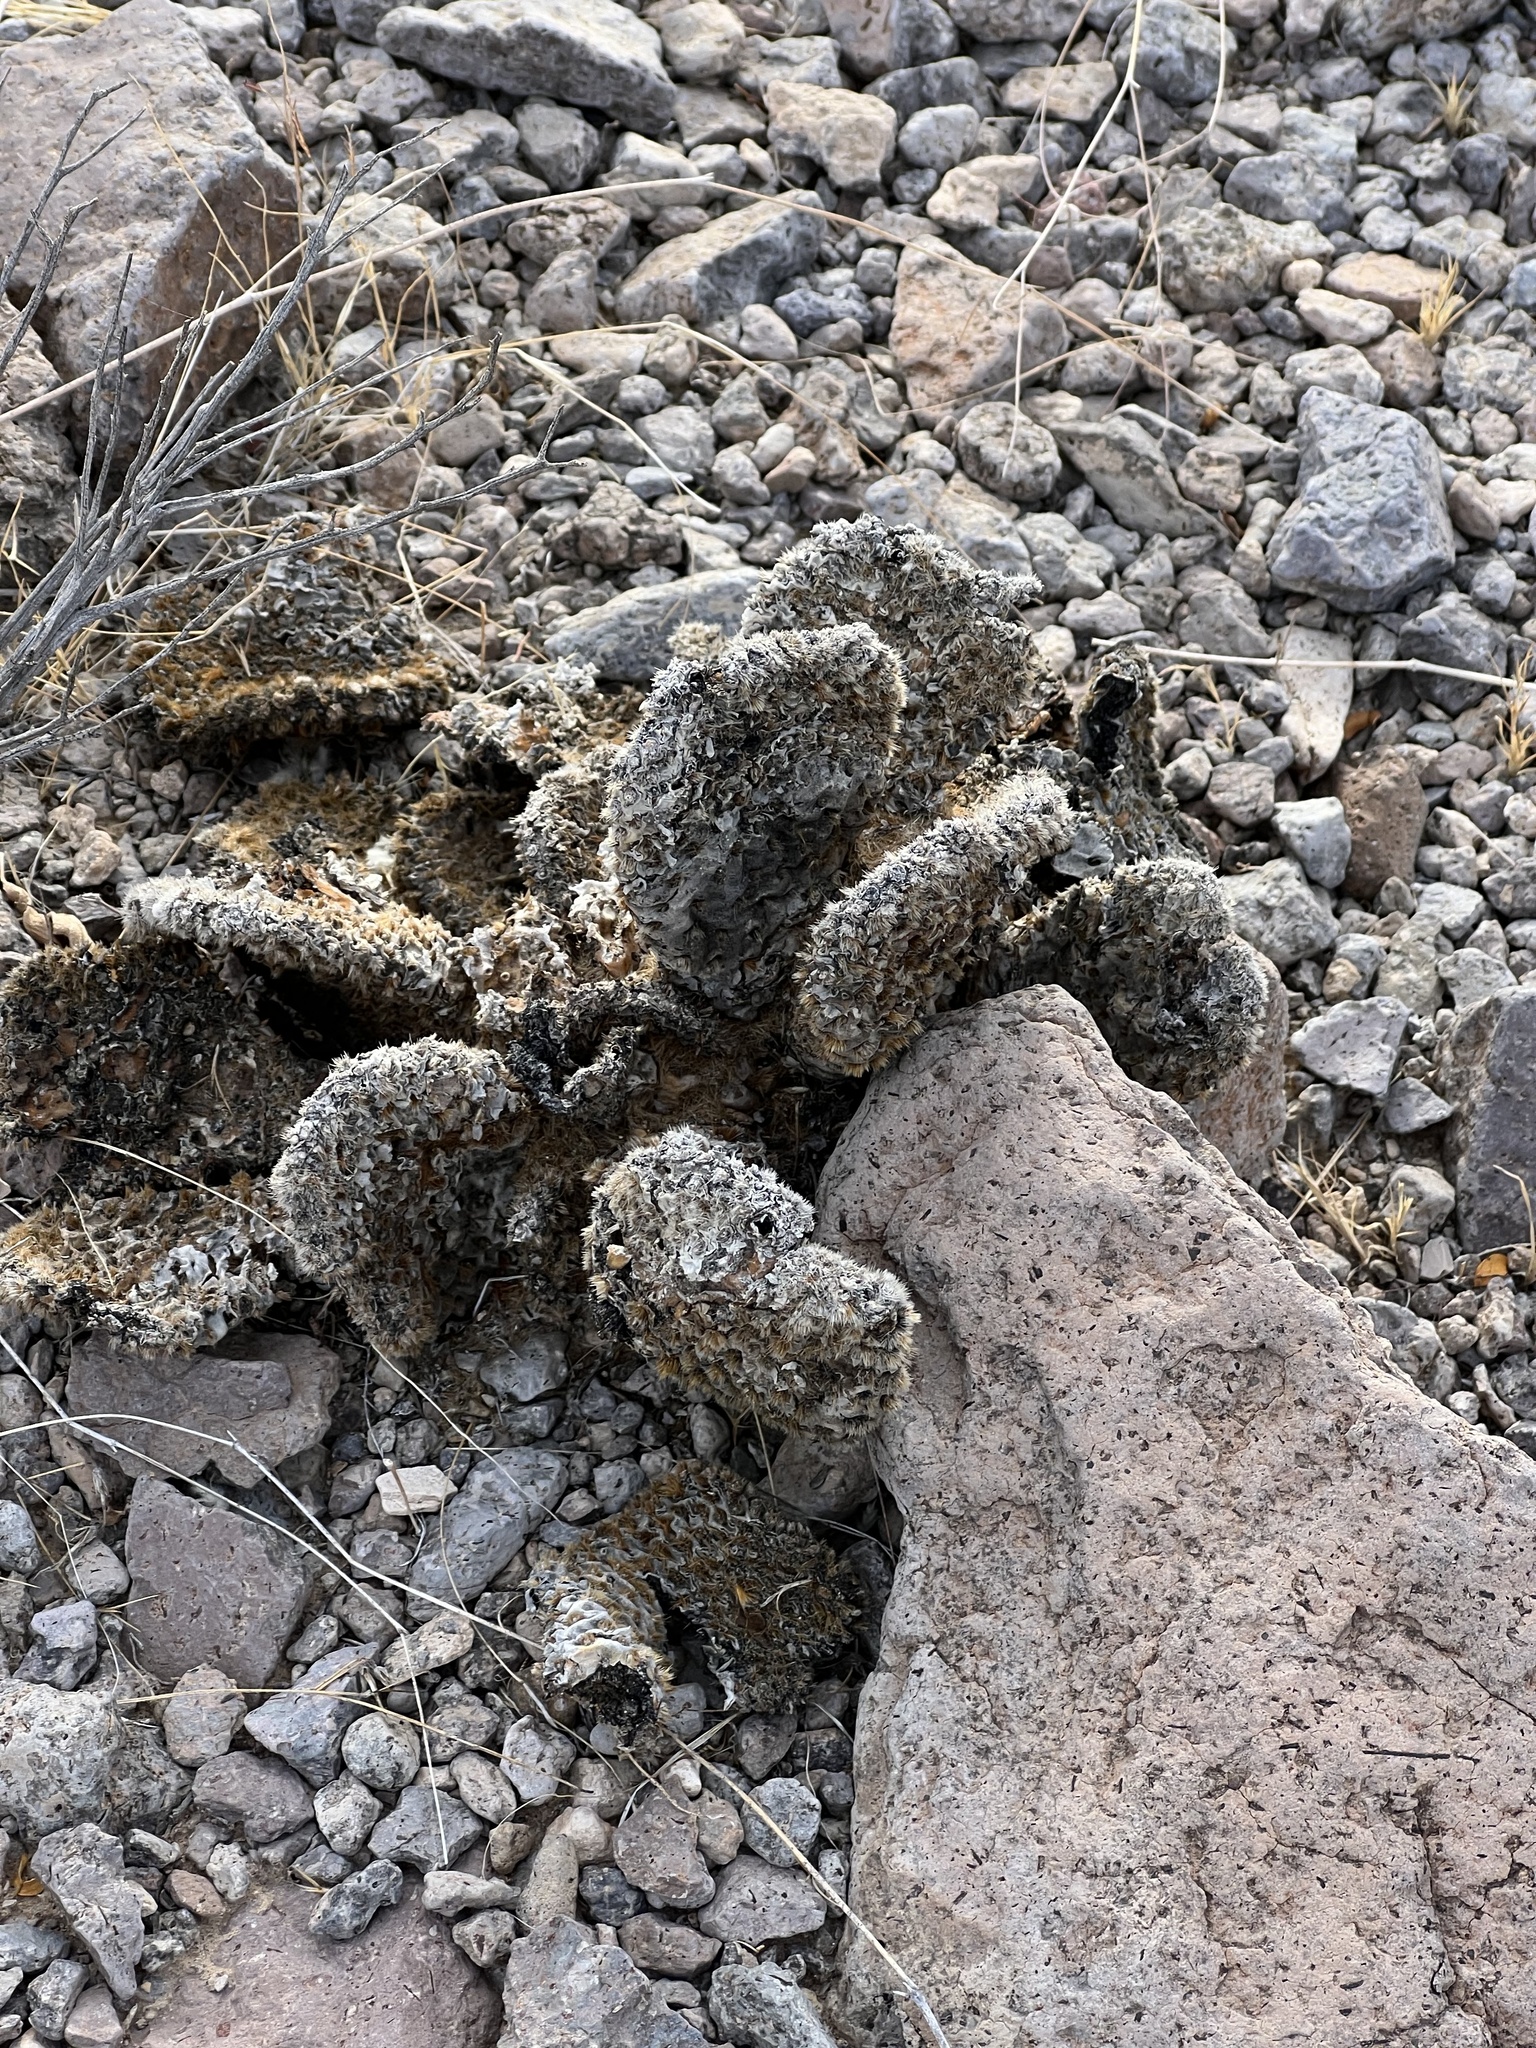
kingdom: Plantae
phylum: Tracheophyta
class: Magnoliopsida
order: Caryophyllales
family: Cactaceae
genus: Opuntia
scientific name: Opuntia basilaris
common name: Beavertail prickly-pear
